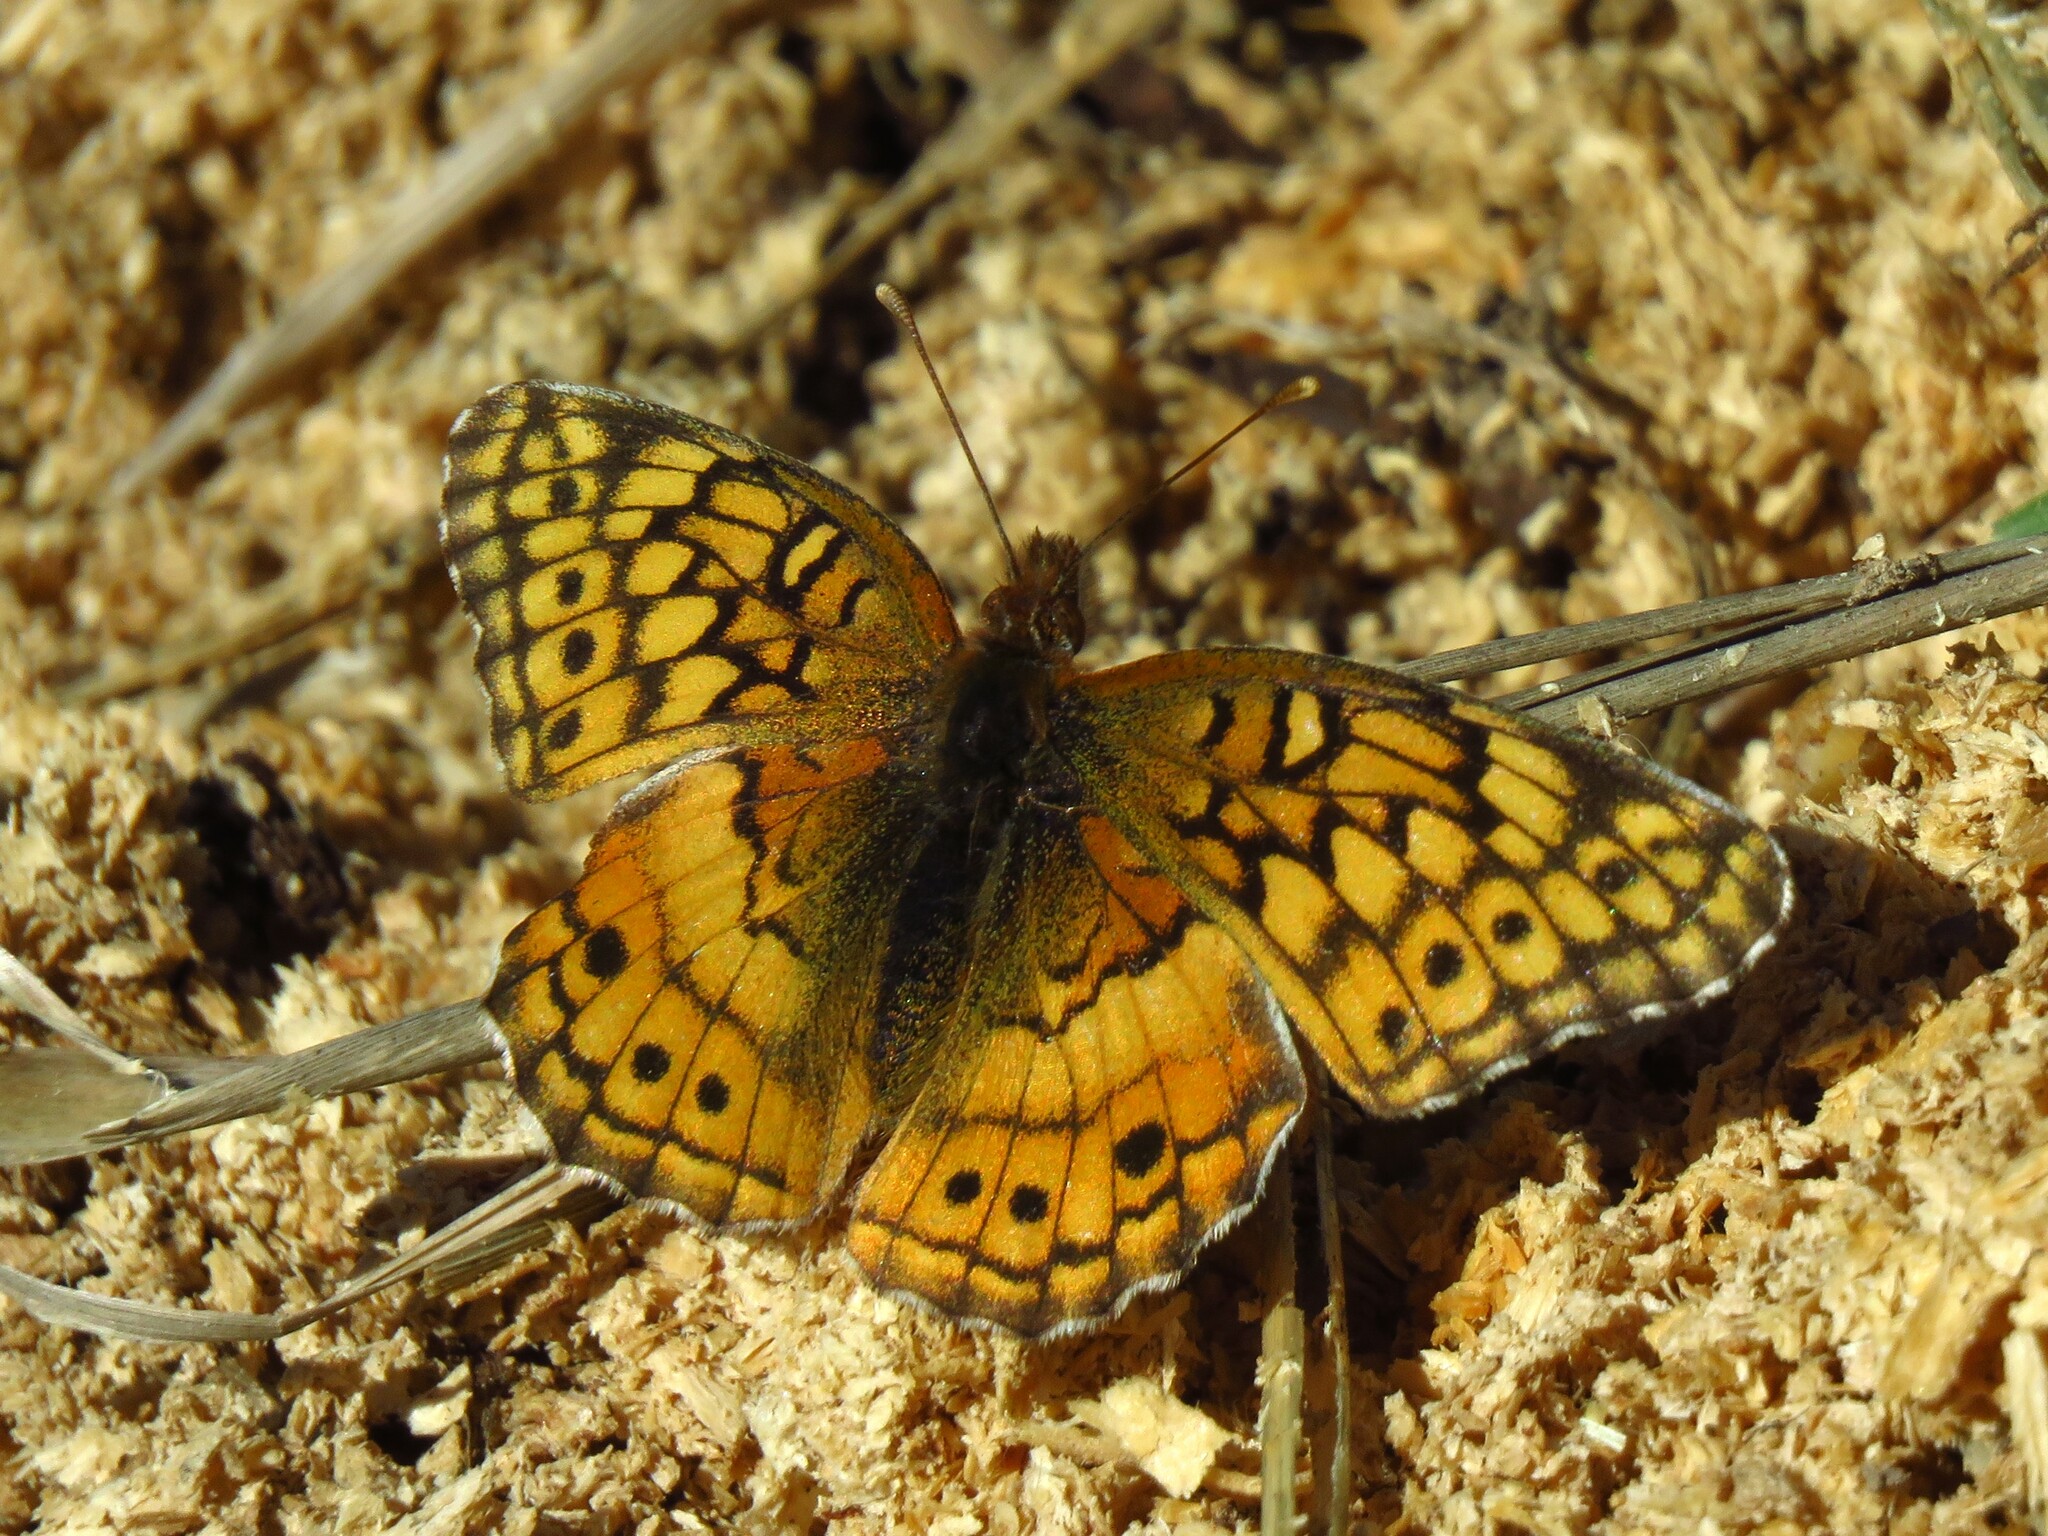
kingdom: Animalia
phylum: Arthropoda
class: Insecta
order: Lepidoptera
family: Nymphalidae
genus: Euptoieta
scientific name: Euptoieta claudia
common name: Variegated fritillary
